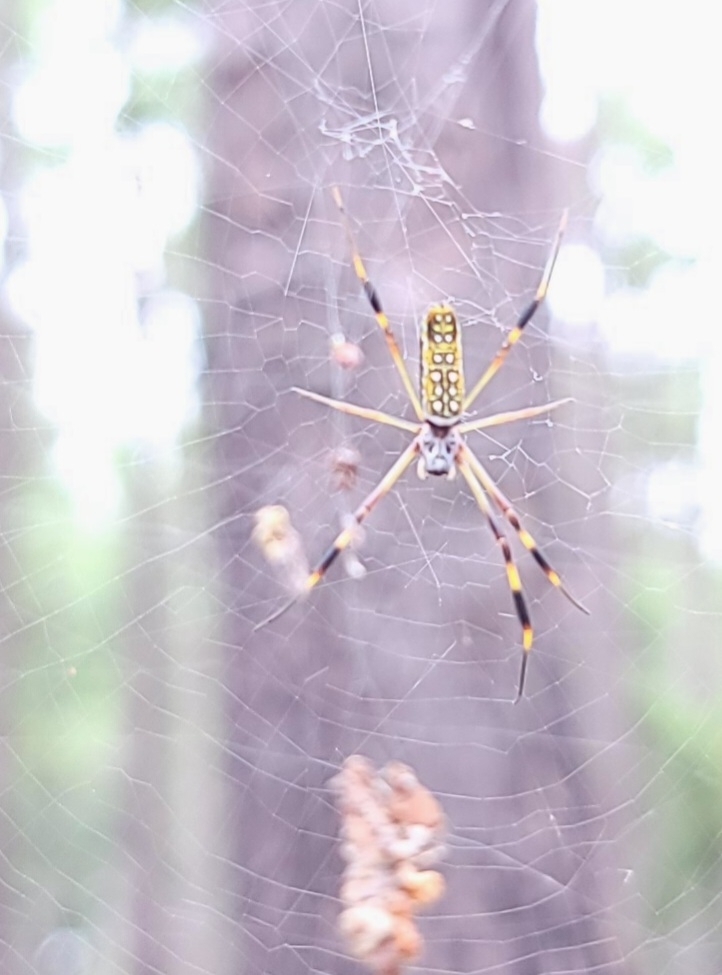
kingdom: Animalia
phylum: Arthropoda
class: Arachnida
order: Araneae
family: Araneidae
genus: Trichonephila
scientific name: Trichonephila clavipes
